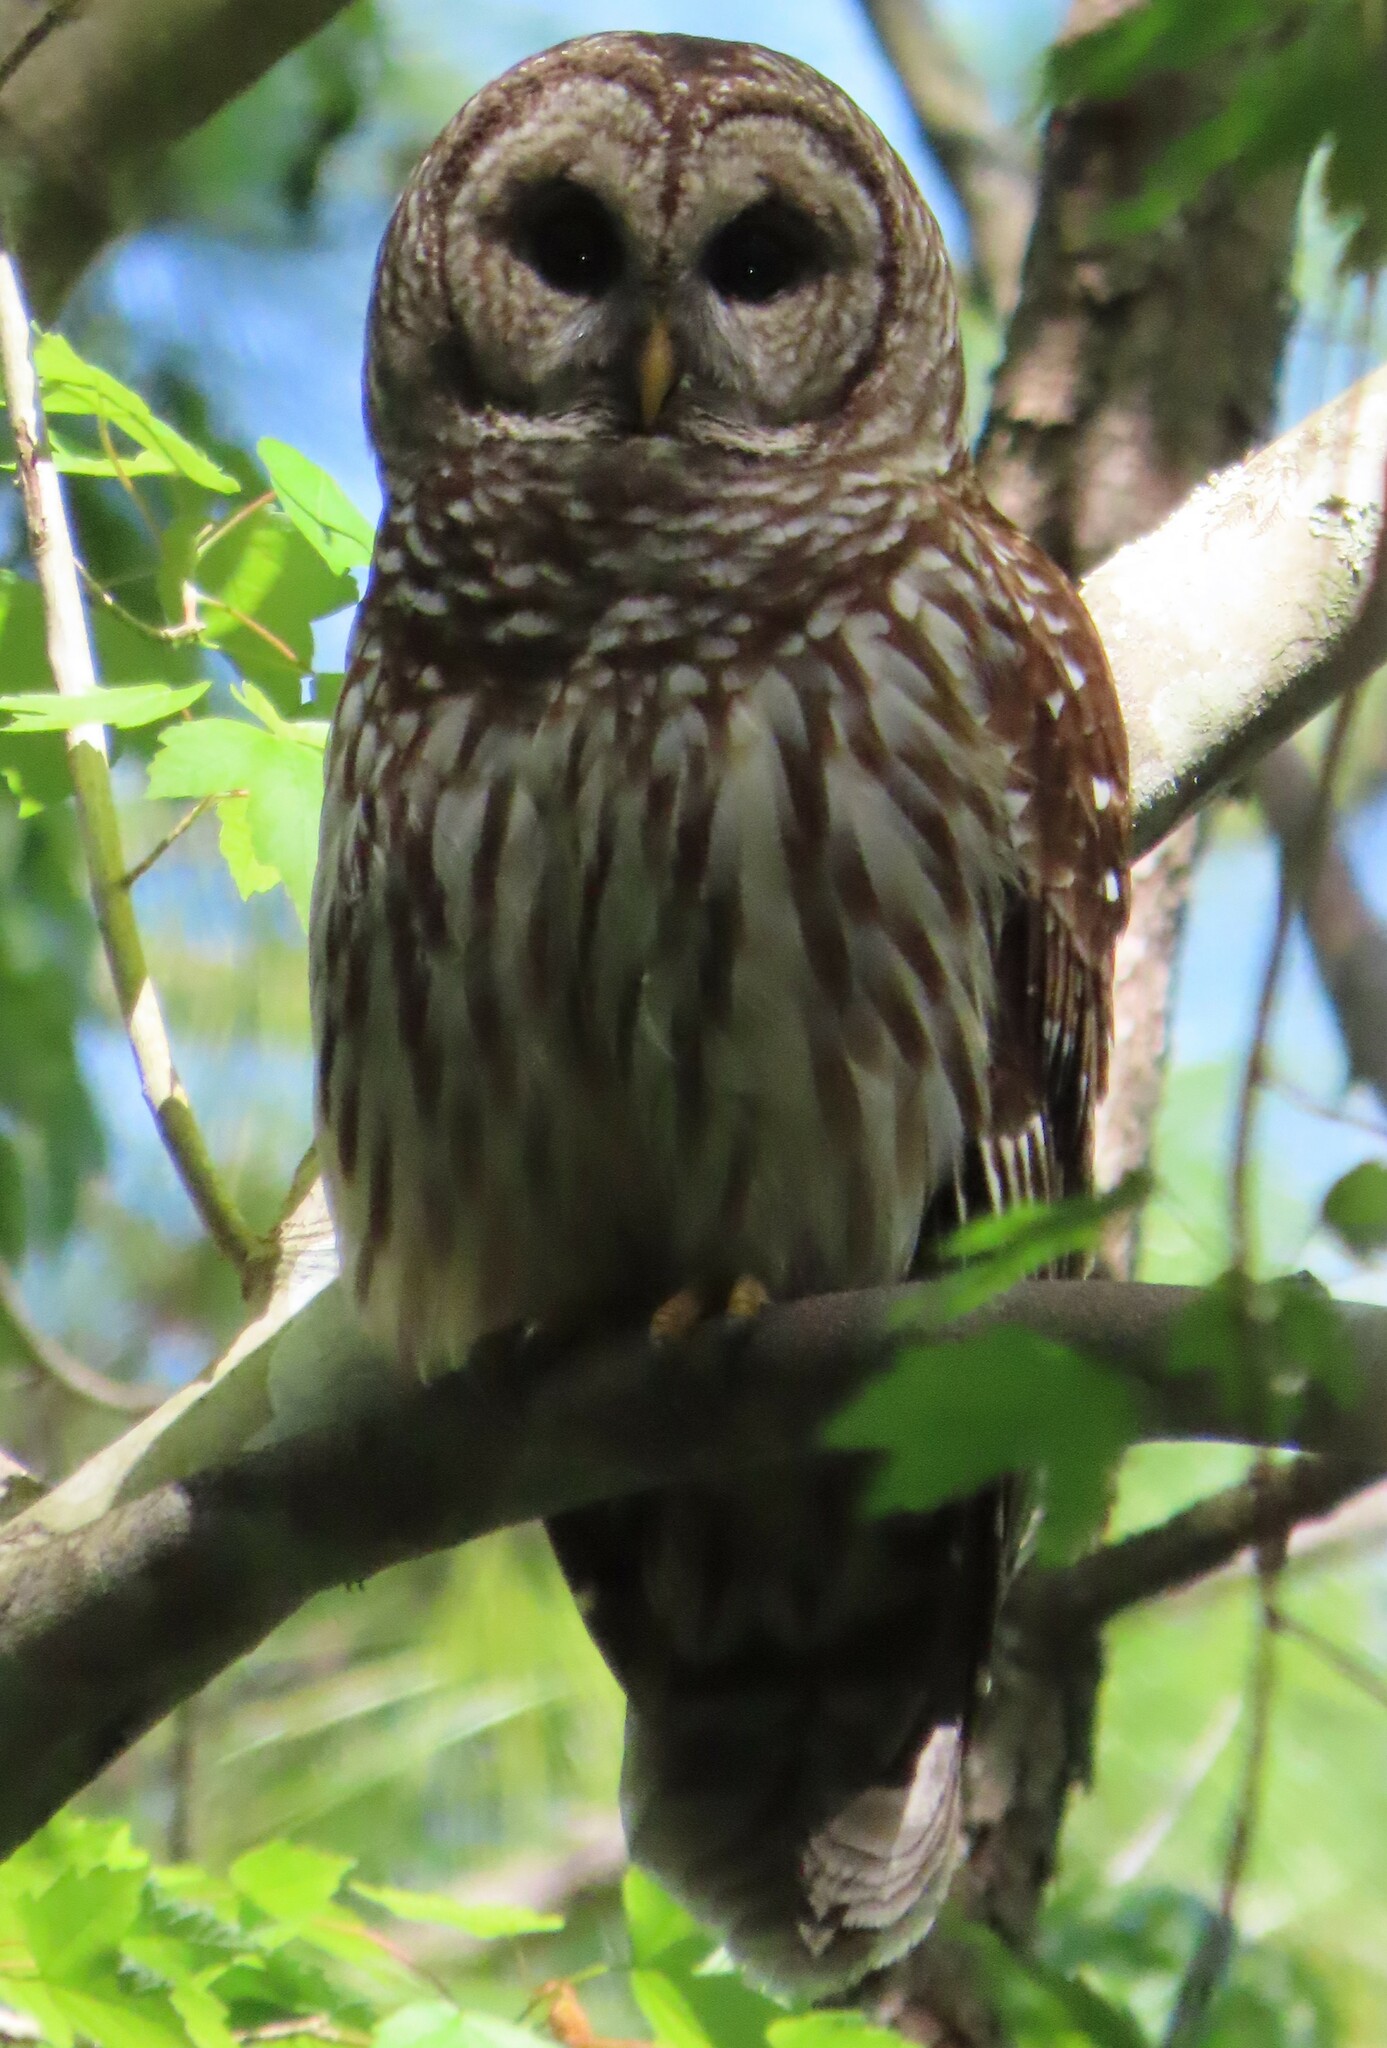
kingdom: Animalia
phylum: Chordata
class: Aves
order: Strigiformes
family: Strigidae
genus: Strix
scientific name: Strix varia
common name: Barred owl
